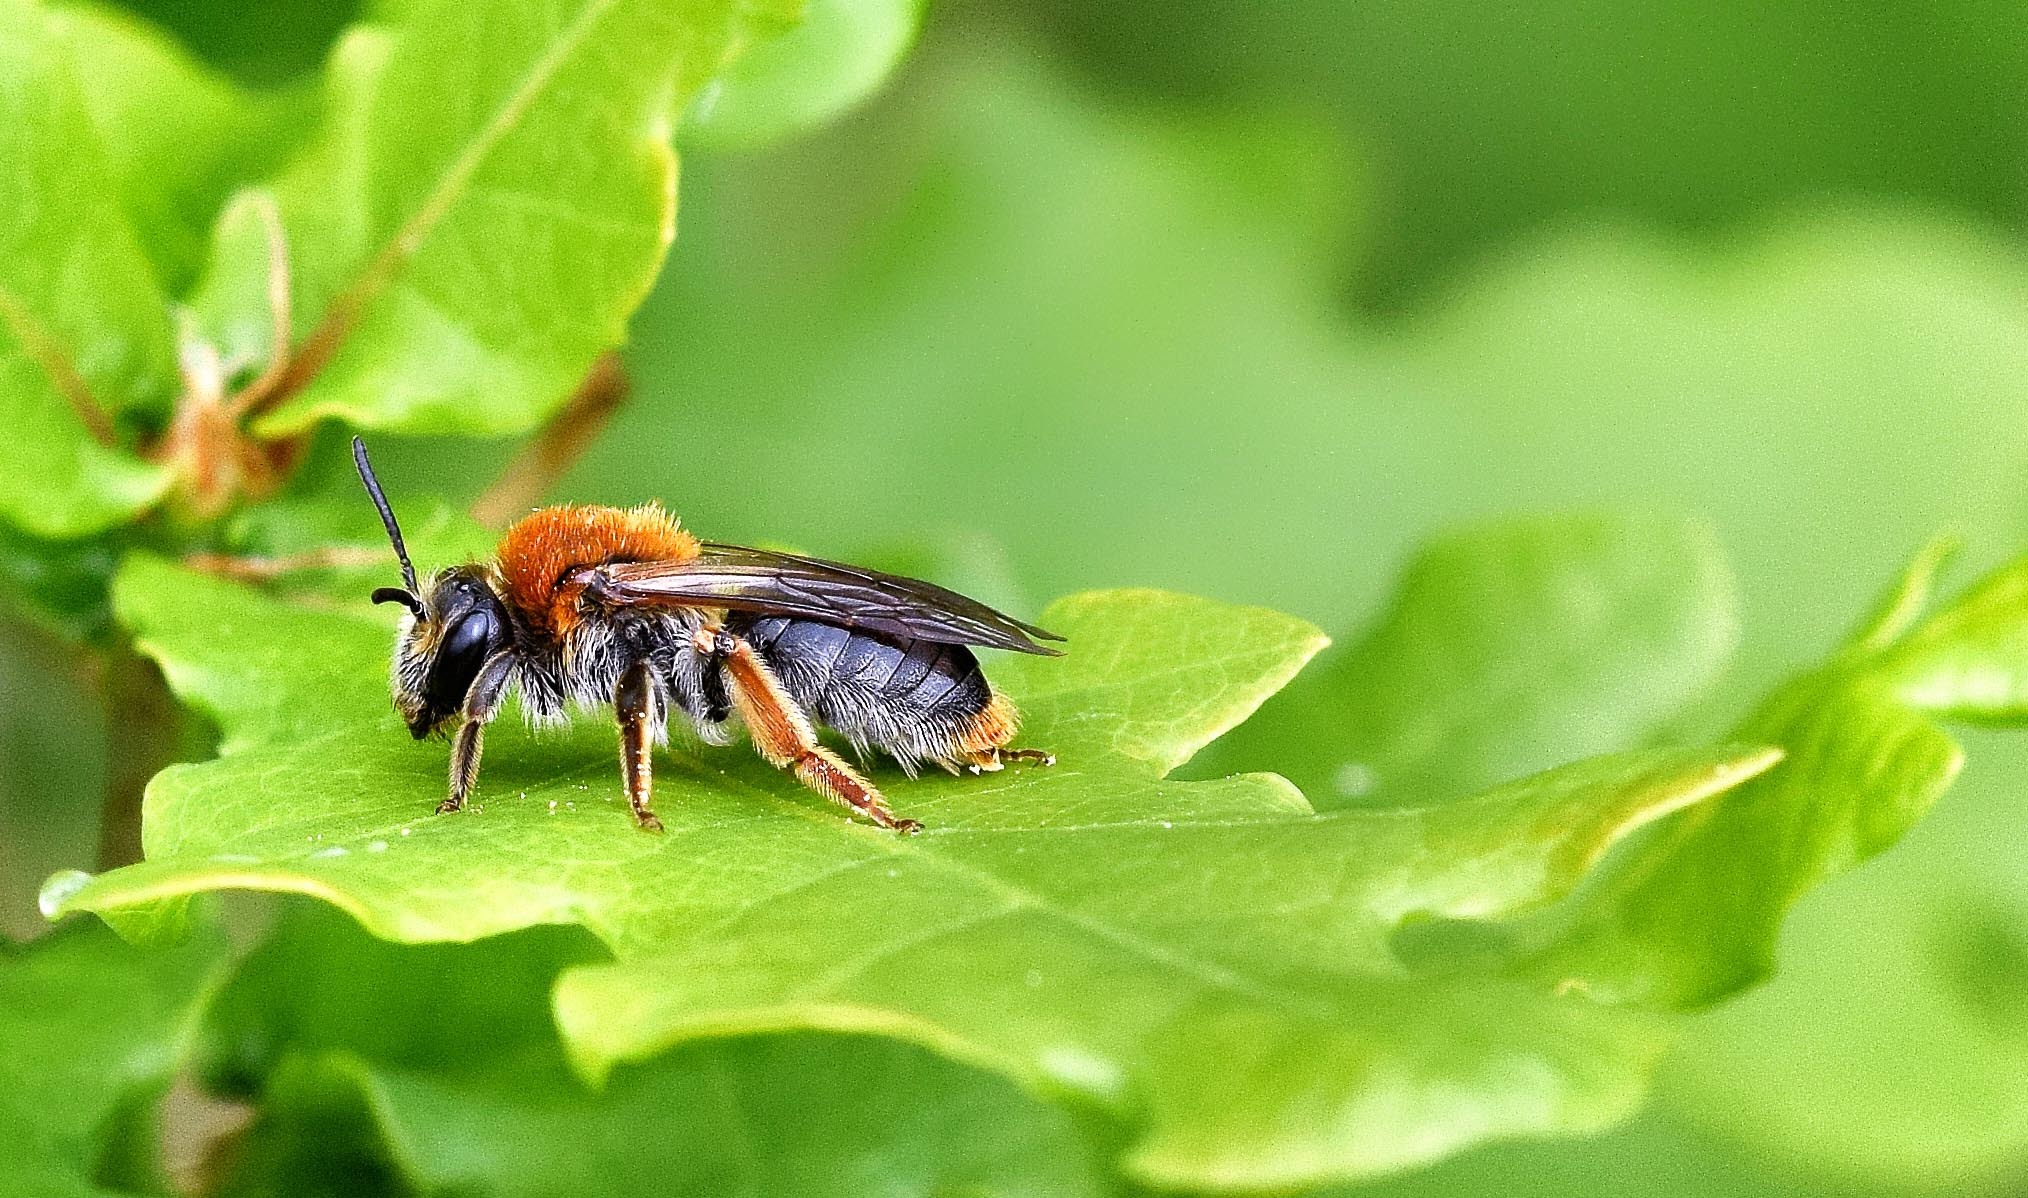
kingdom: Animalia
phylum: Arthropoda
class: Insecta
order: Hymenoptera
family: Andrenidae
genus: Andrena
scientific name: Andrena haemorrhoa
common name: Early mining bee
